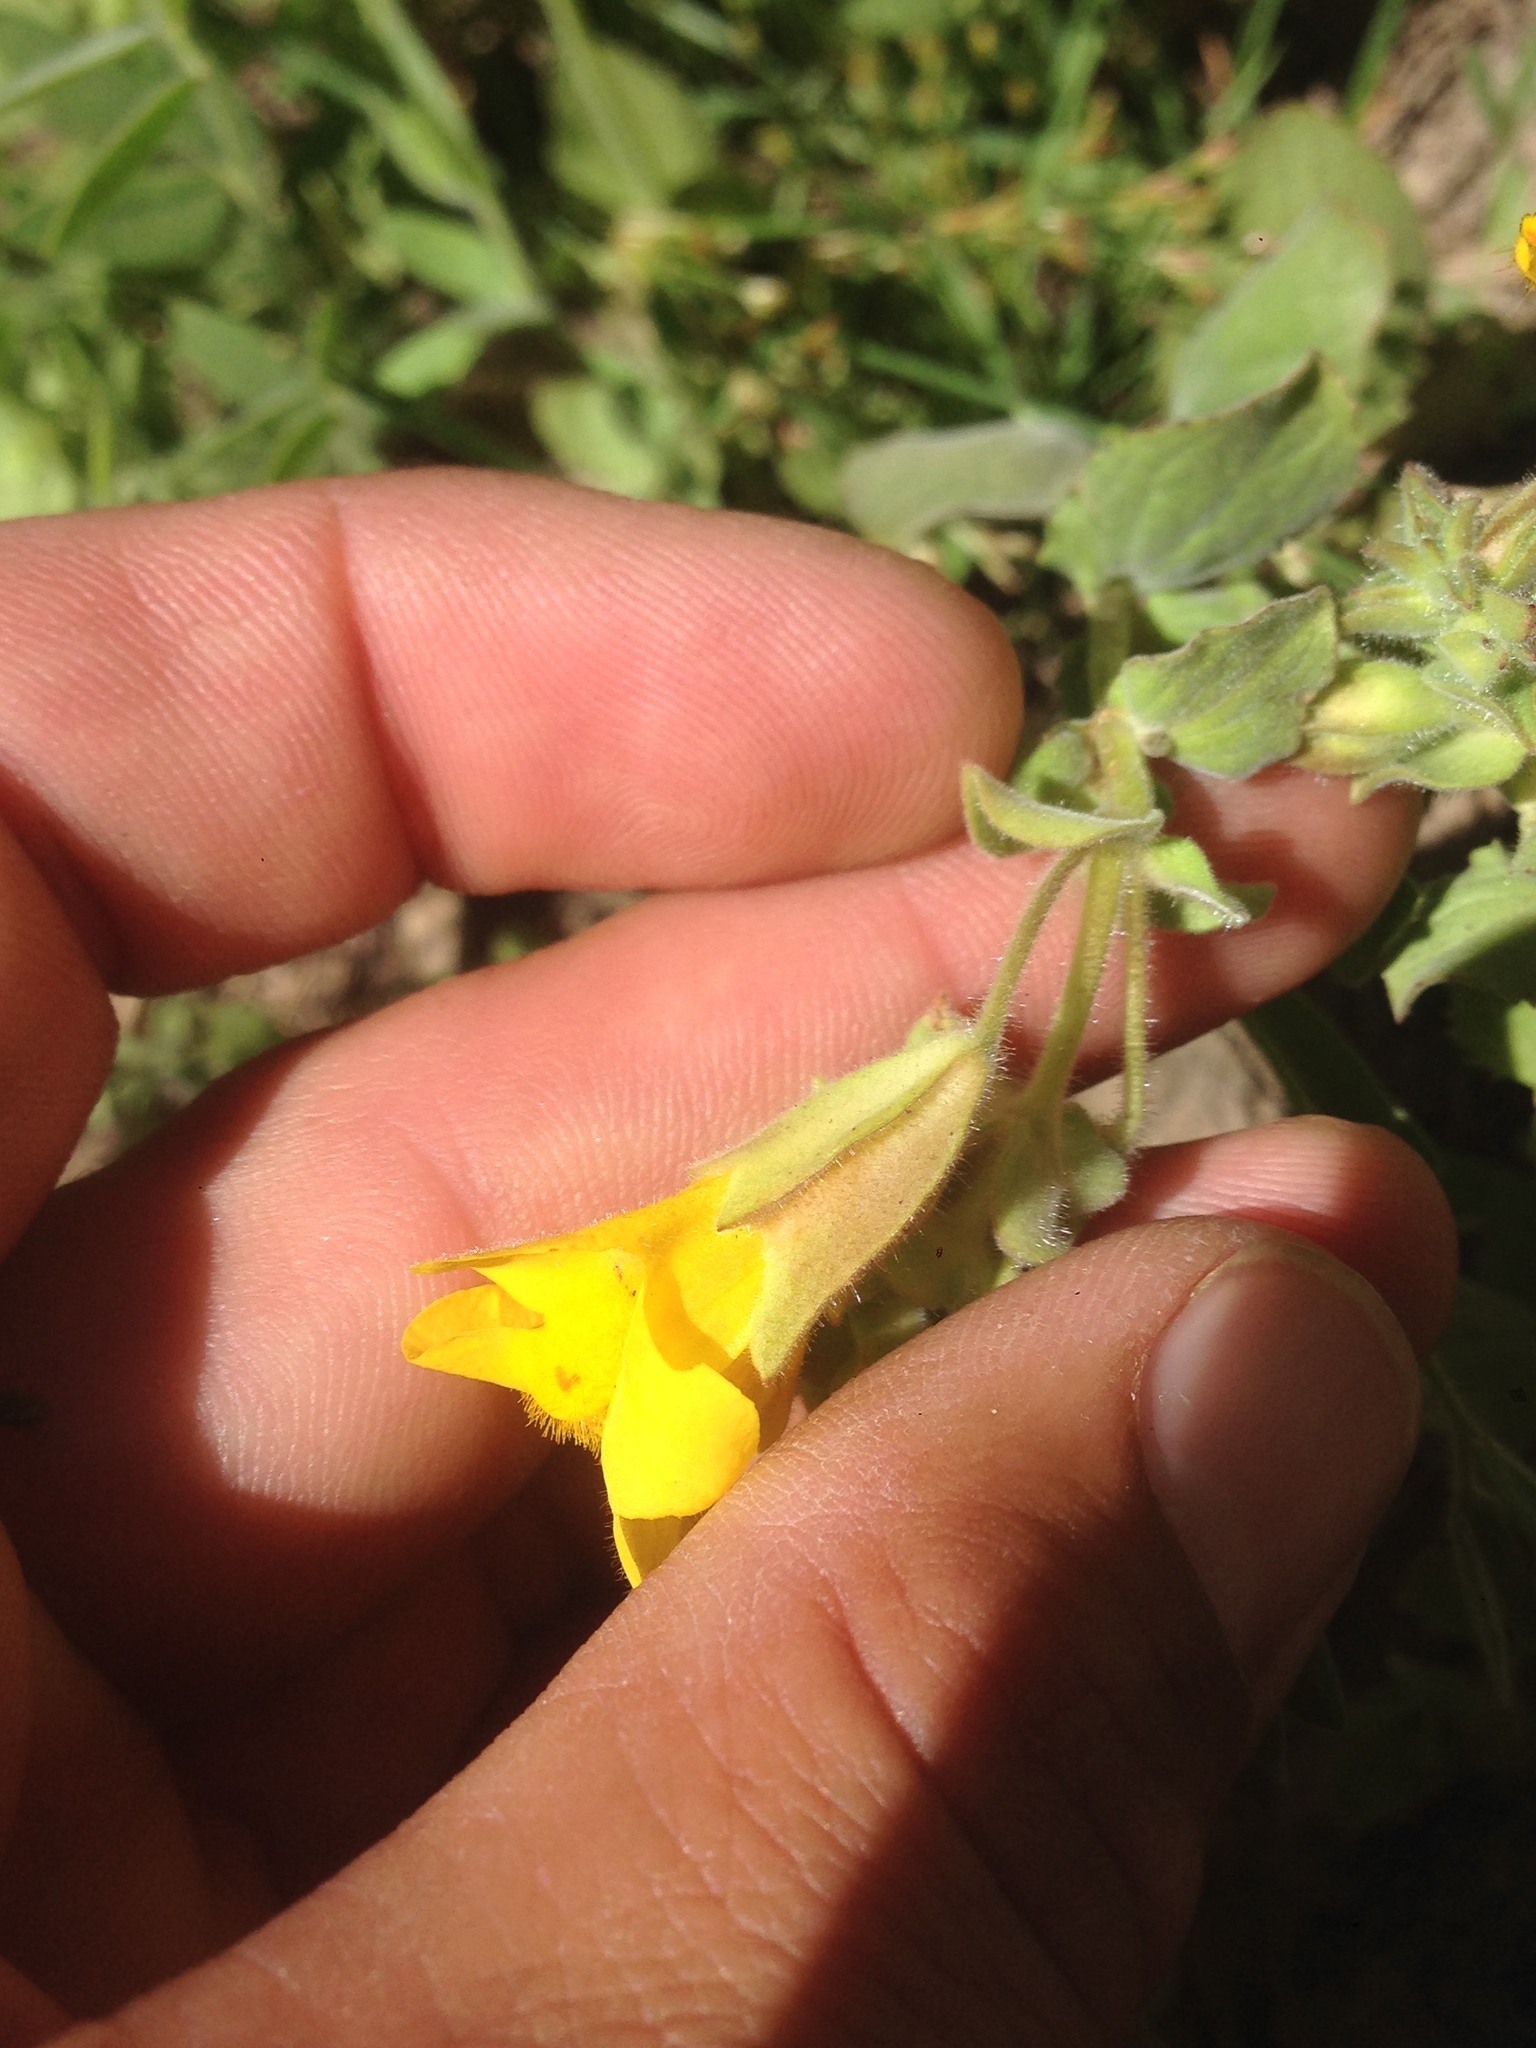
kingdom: Plantae
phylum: Tracheophyta
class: Magnoliopsida
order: Lamiales
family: Phrymaceae
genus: Erythranthe
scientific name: Erythranthe guttata
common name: Monkeyflower
